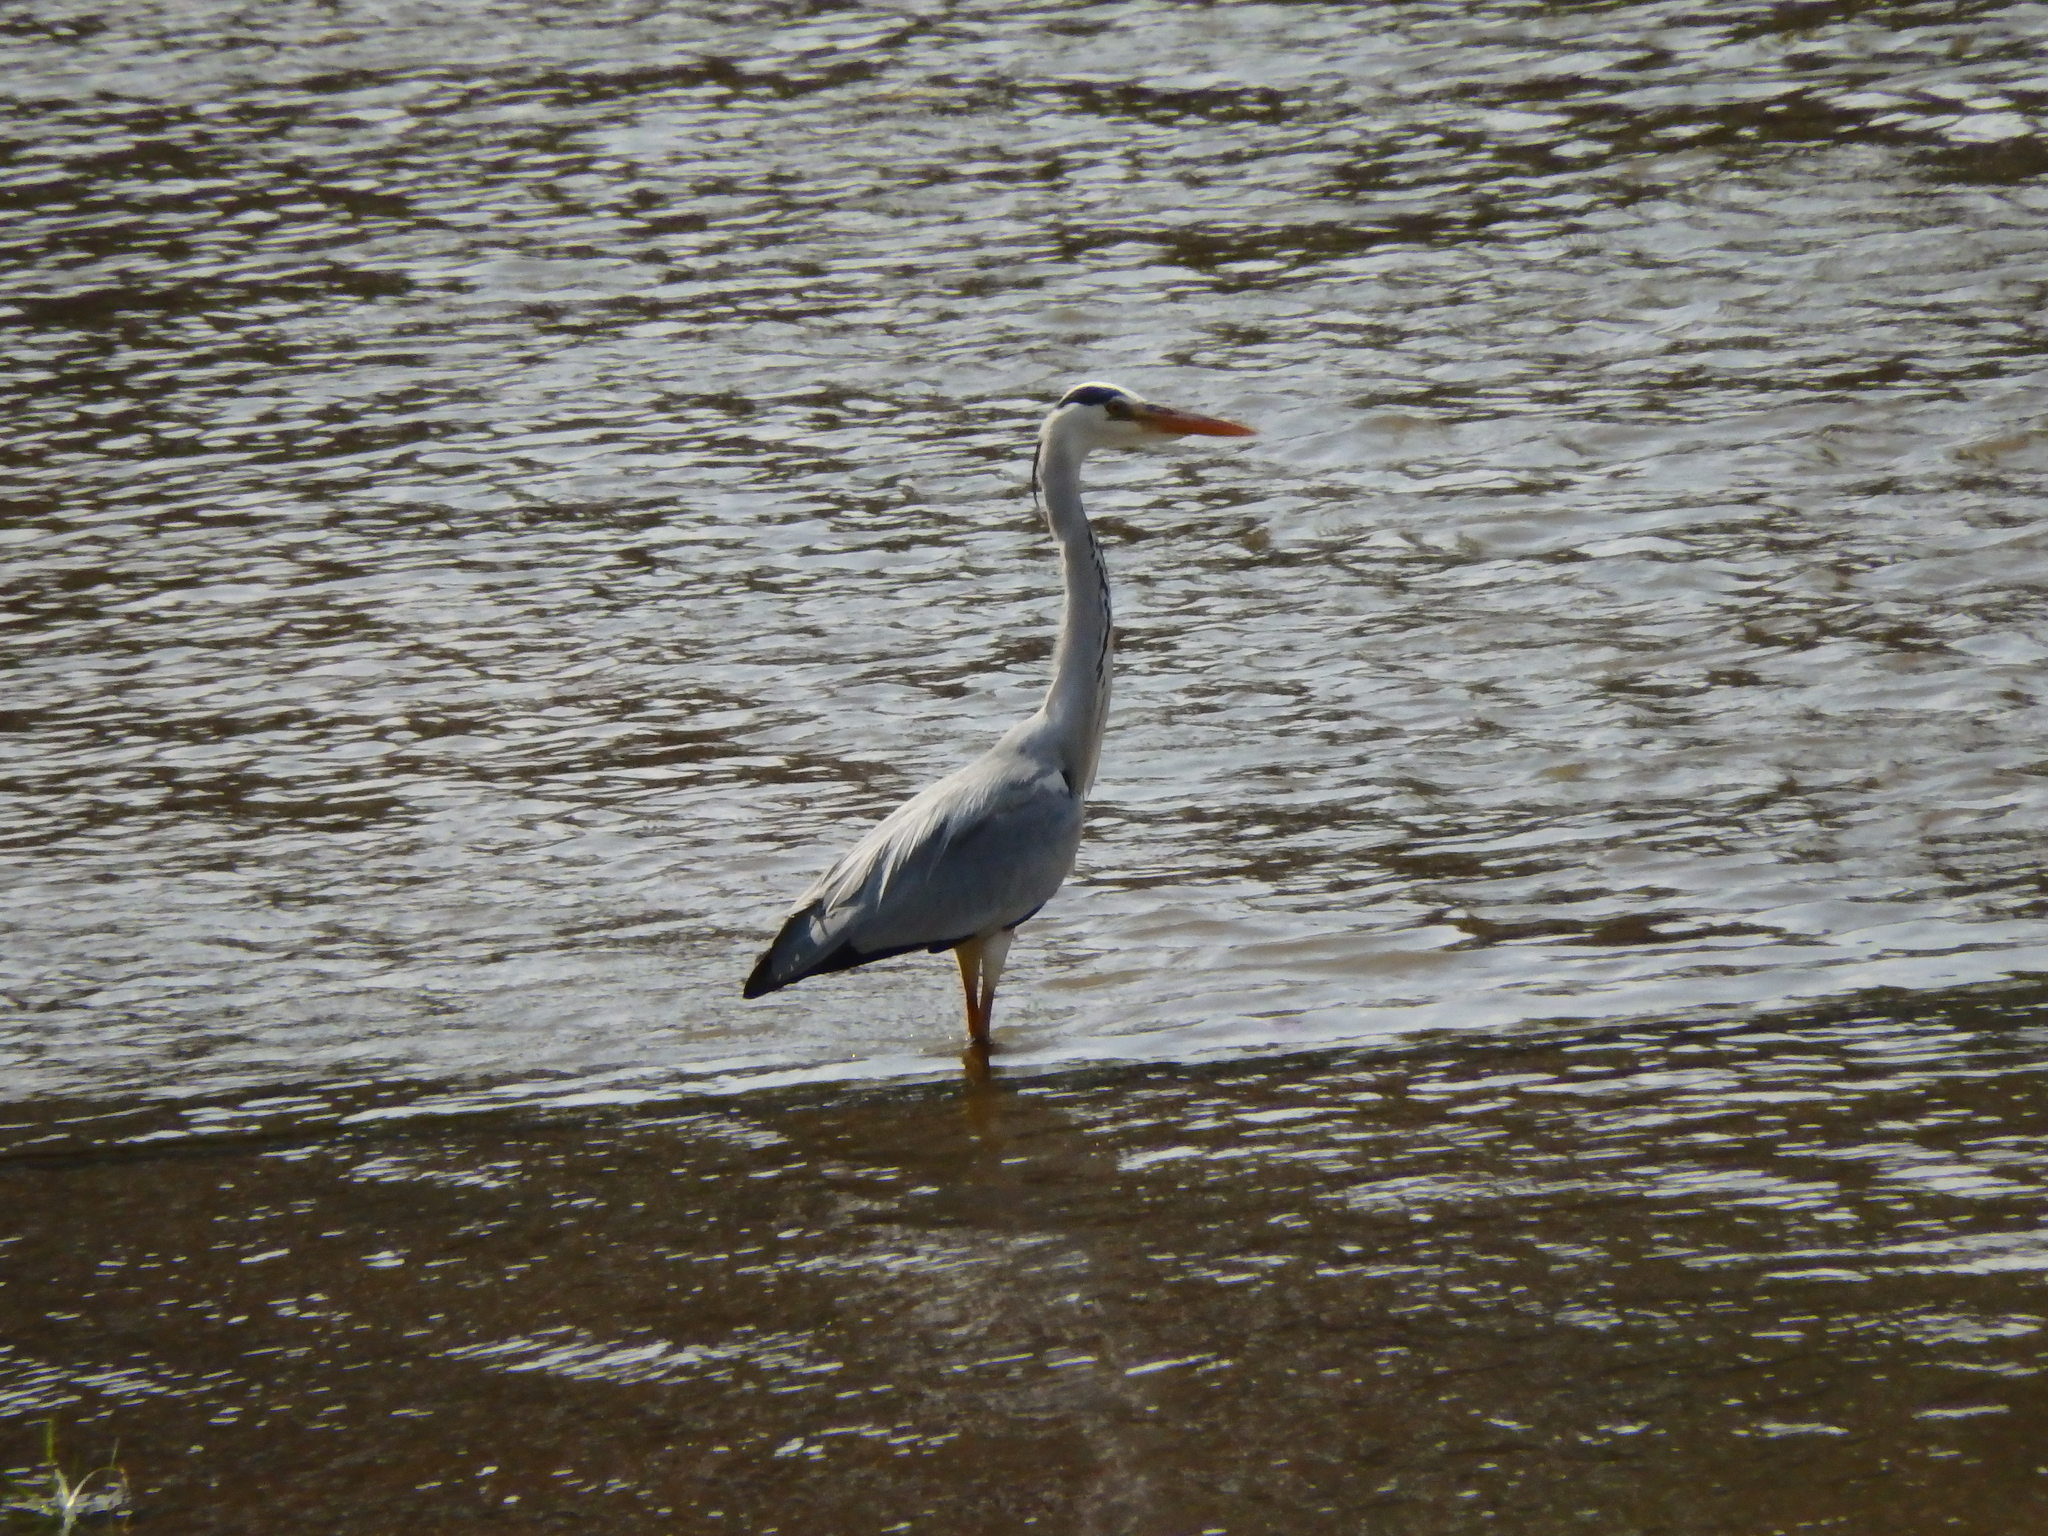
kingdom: Animalia
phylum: Chordata
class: Aves
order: Pelecaniformes
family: Ardeidae
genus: Ardea
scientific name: Ardea cinerea
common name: Grey heron
